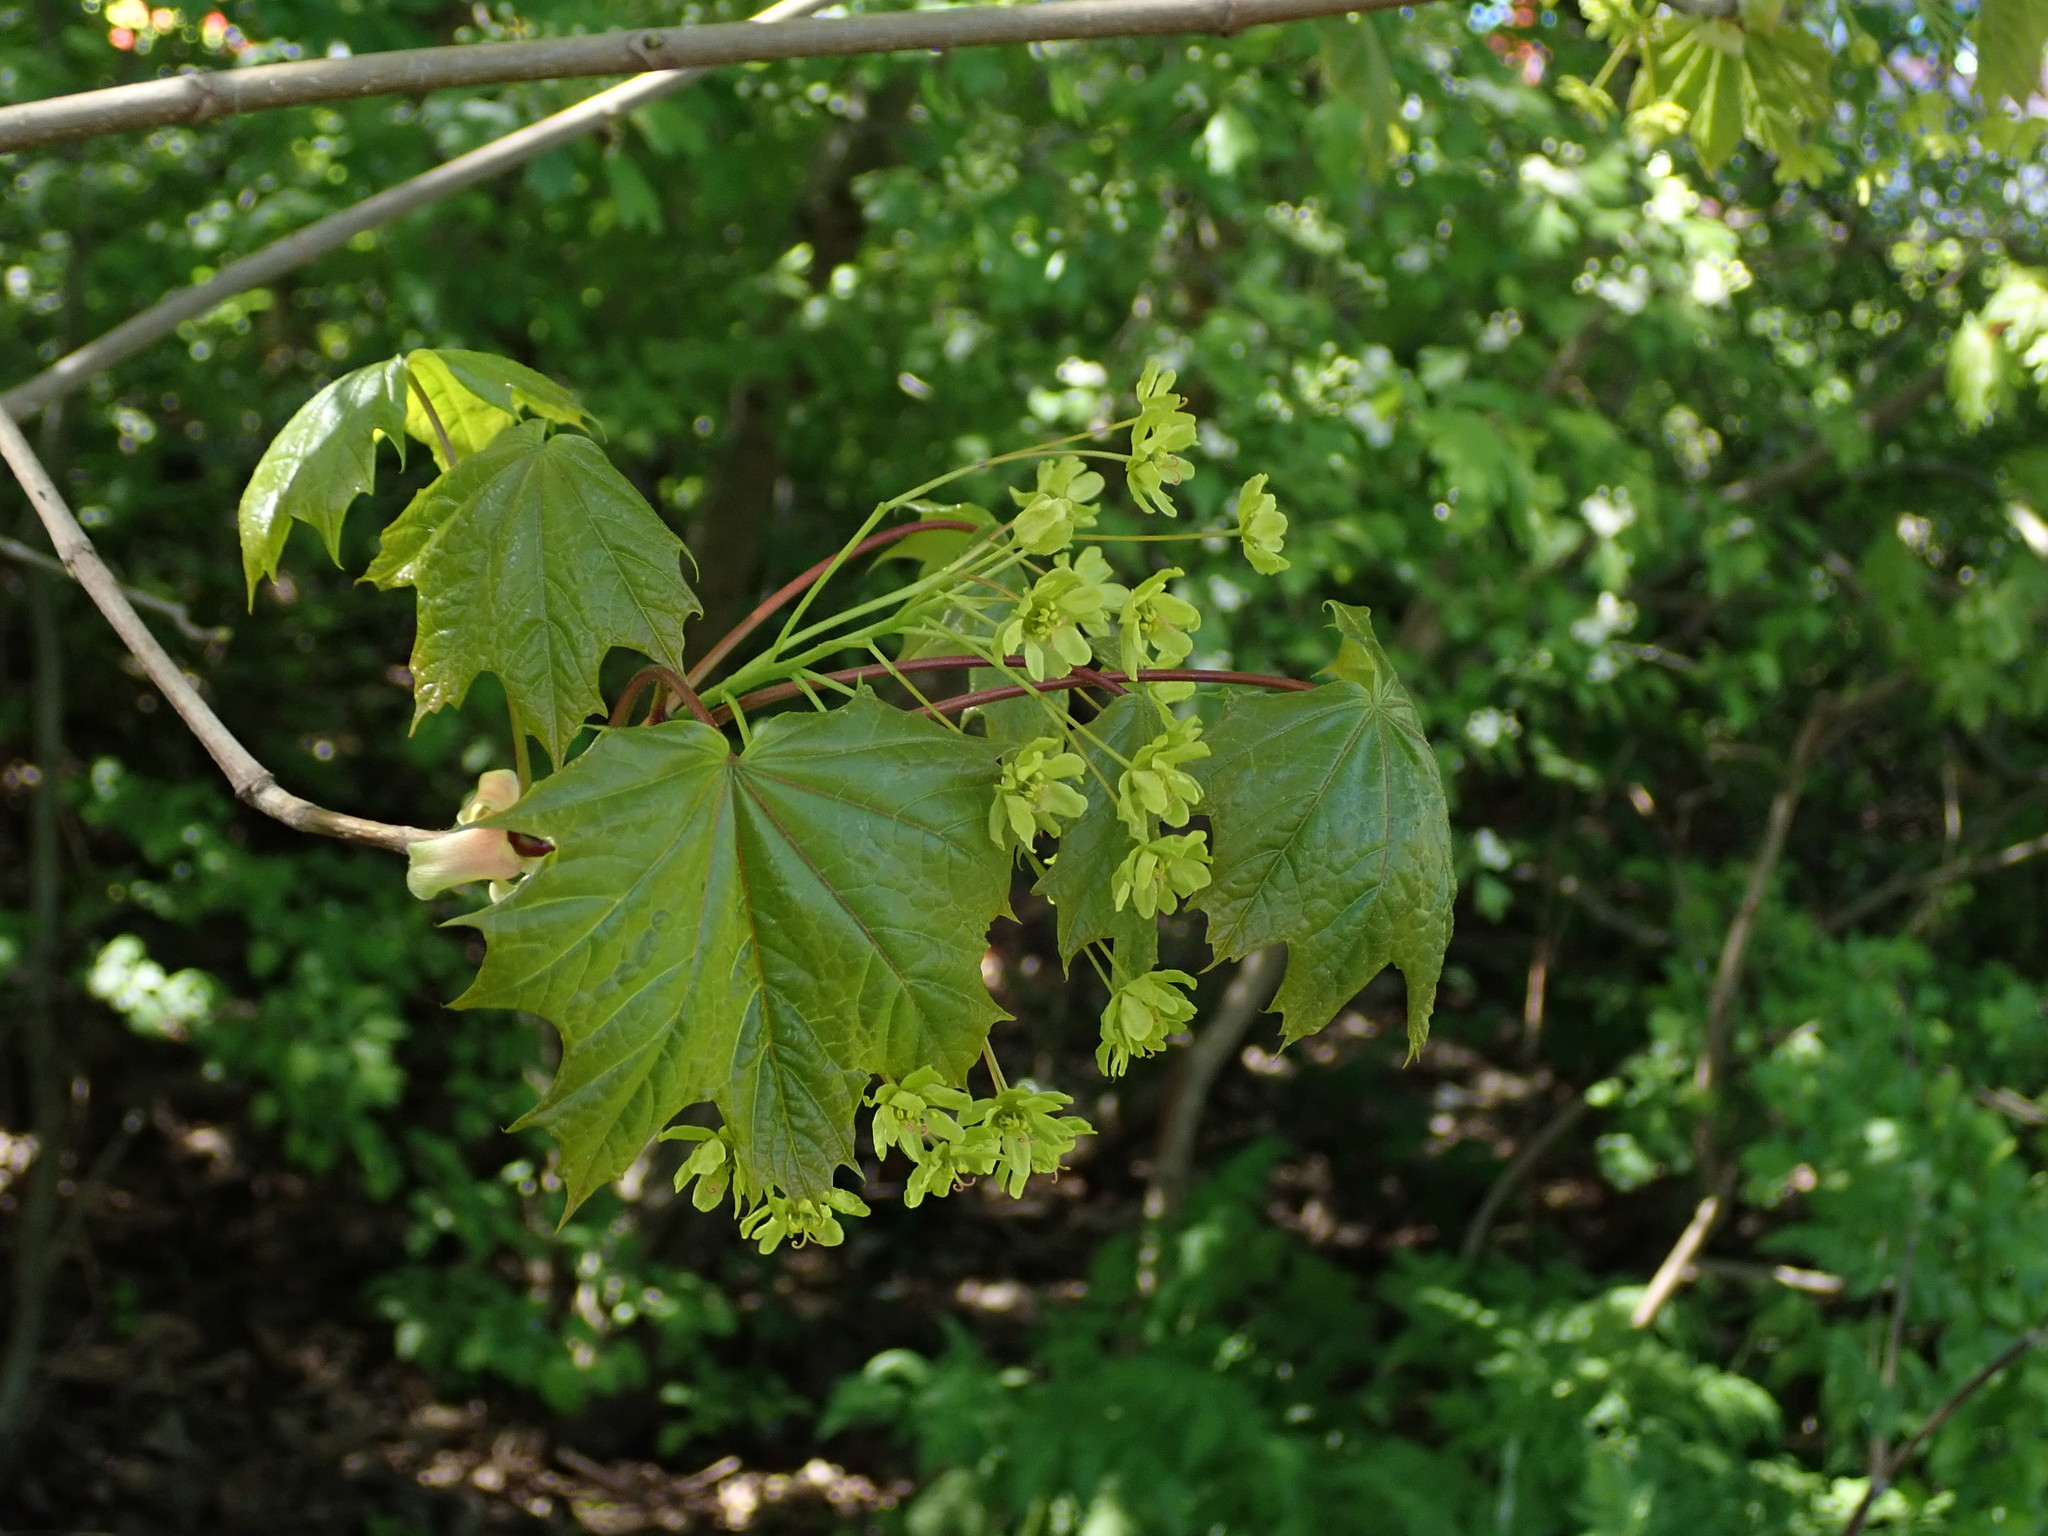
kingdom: Plantae
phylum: Tracheophyta
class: Magnoliopsida
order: Sapindales
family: Sapindaceae
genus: Acer
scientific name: Acer platanoides
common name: Norway maple
